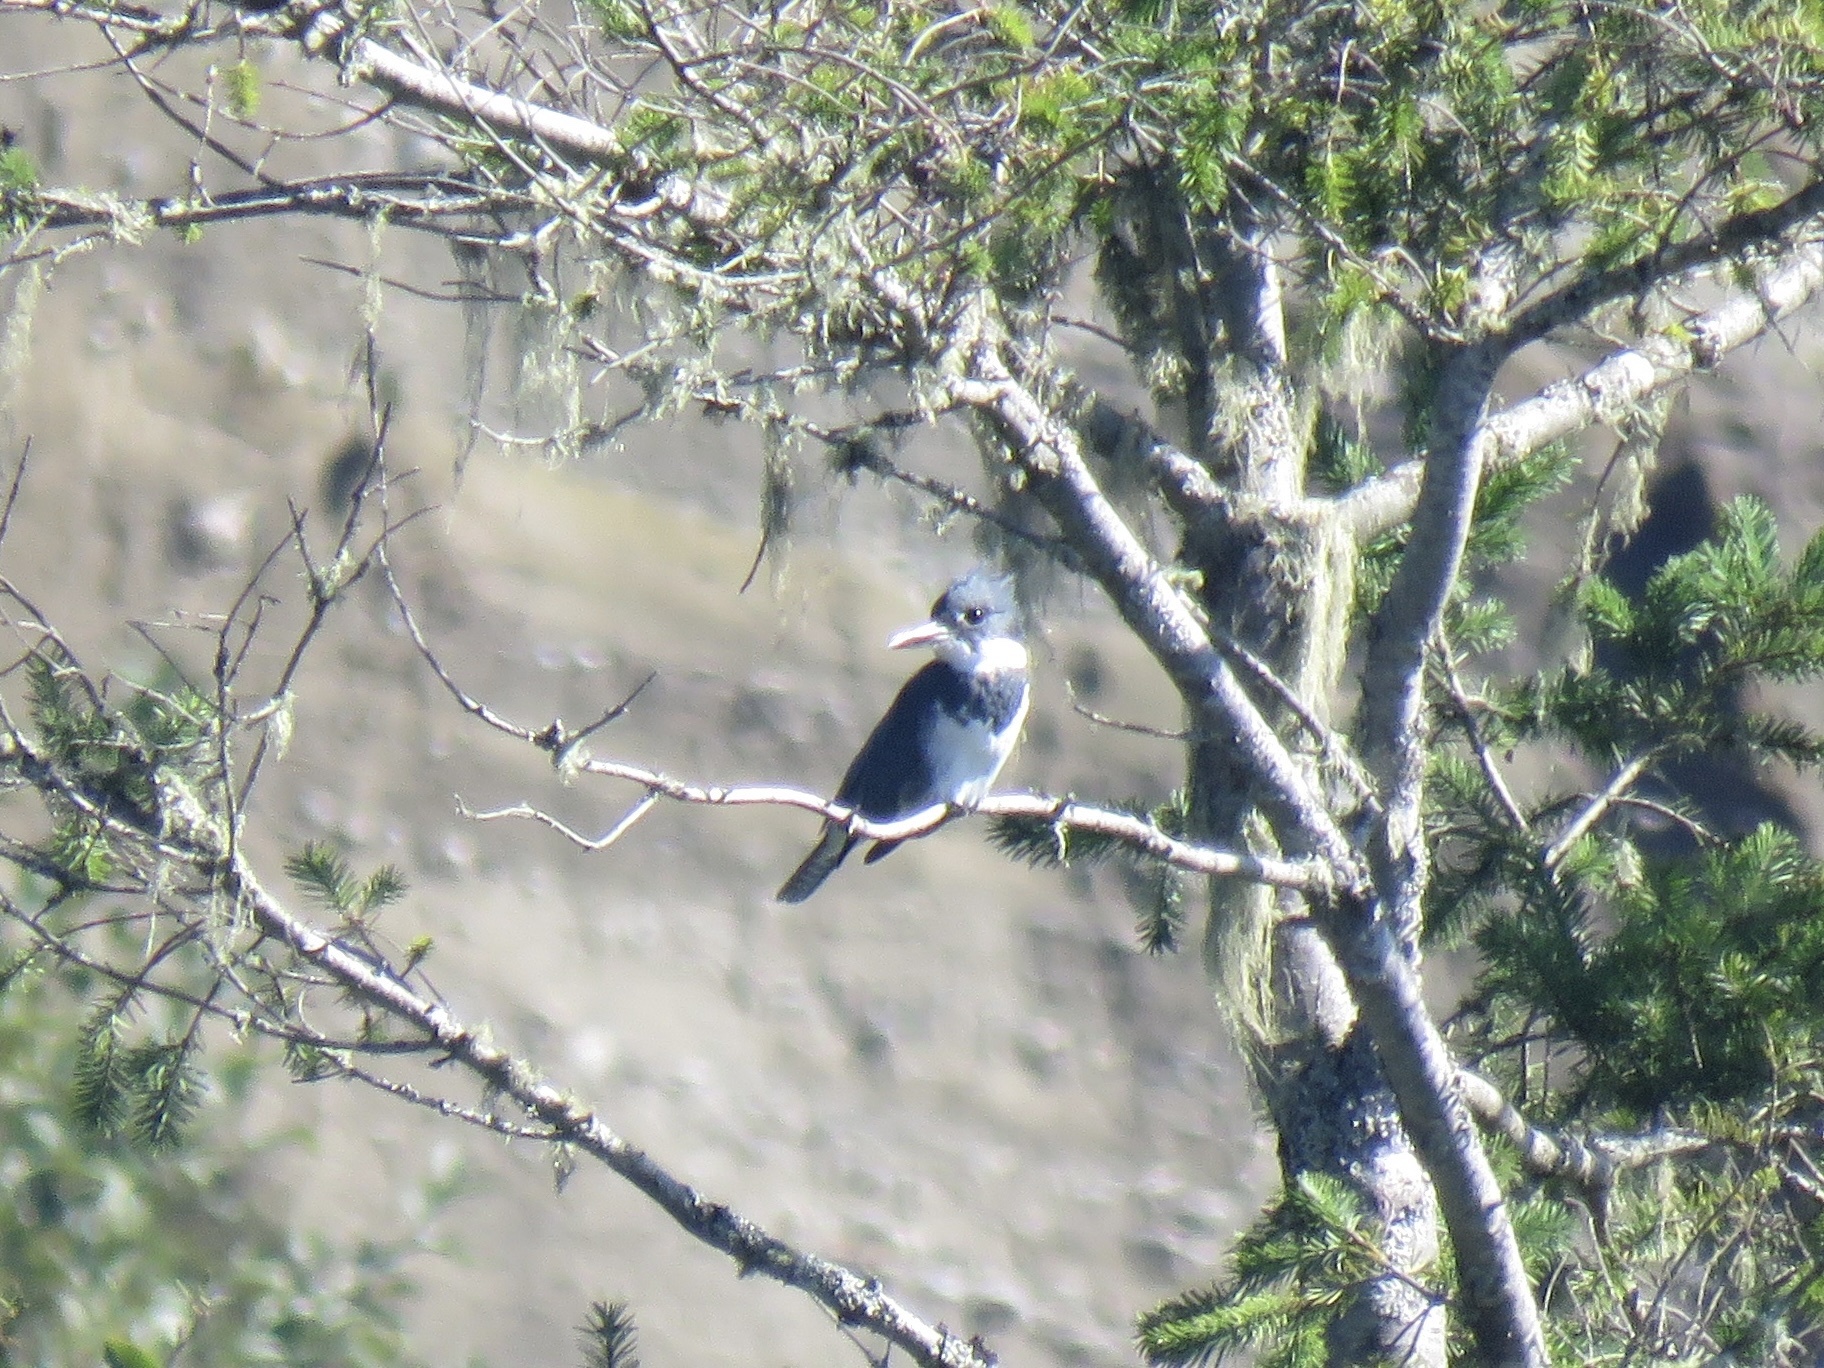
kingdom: Animalia
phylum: Chordata
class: Aves
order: Coraciiformes
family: Alcedinidae
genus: Megaceryle
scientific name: Megaceryle alcyon
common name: Belted kingfisher
